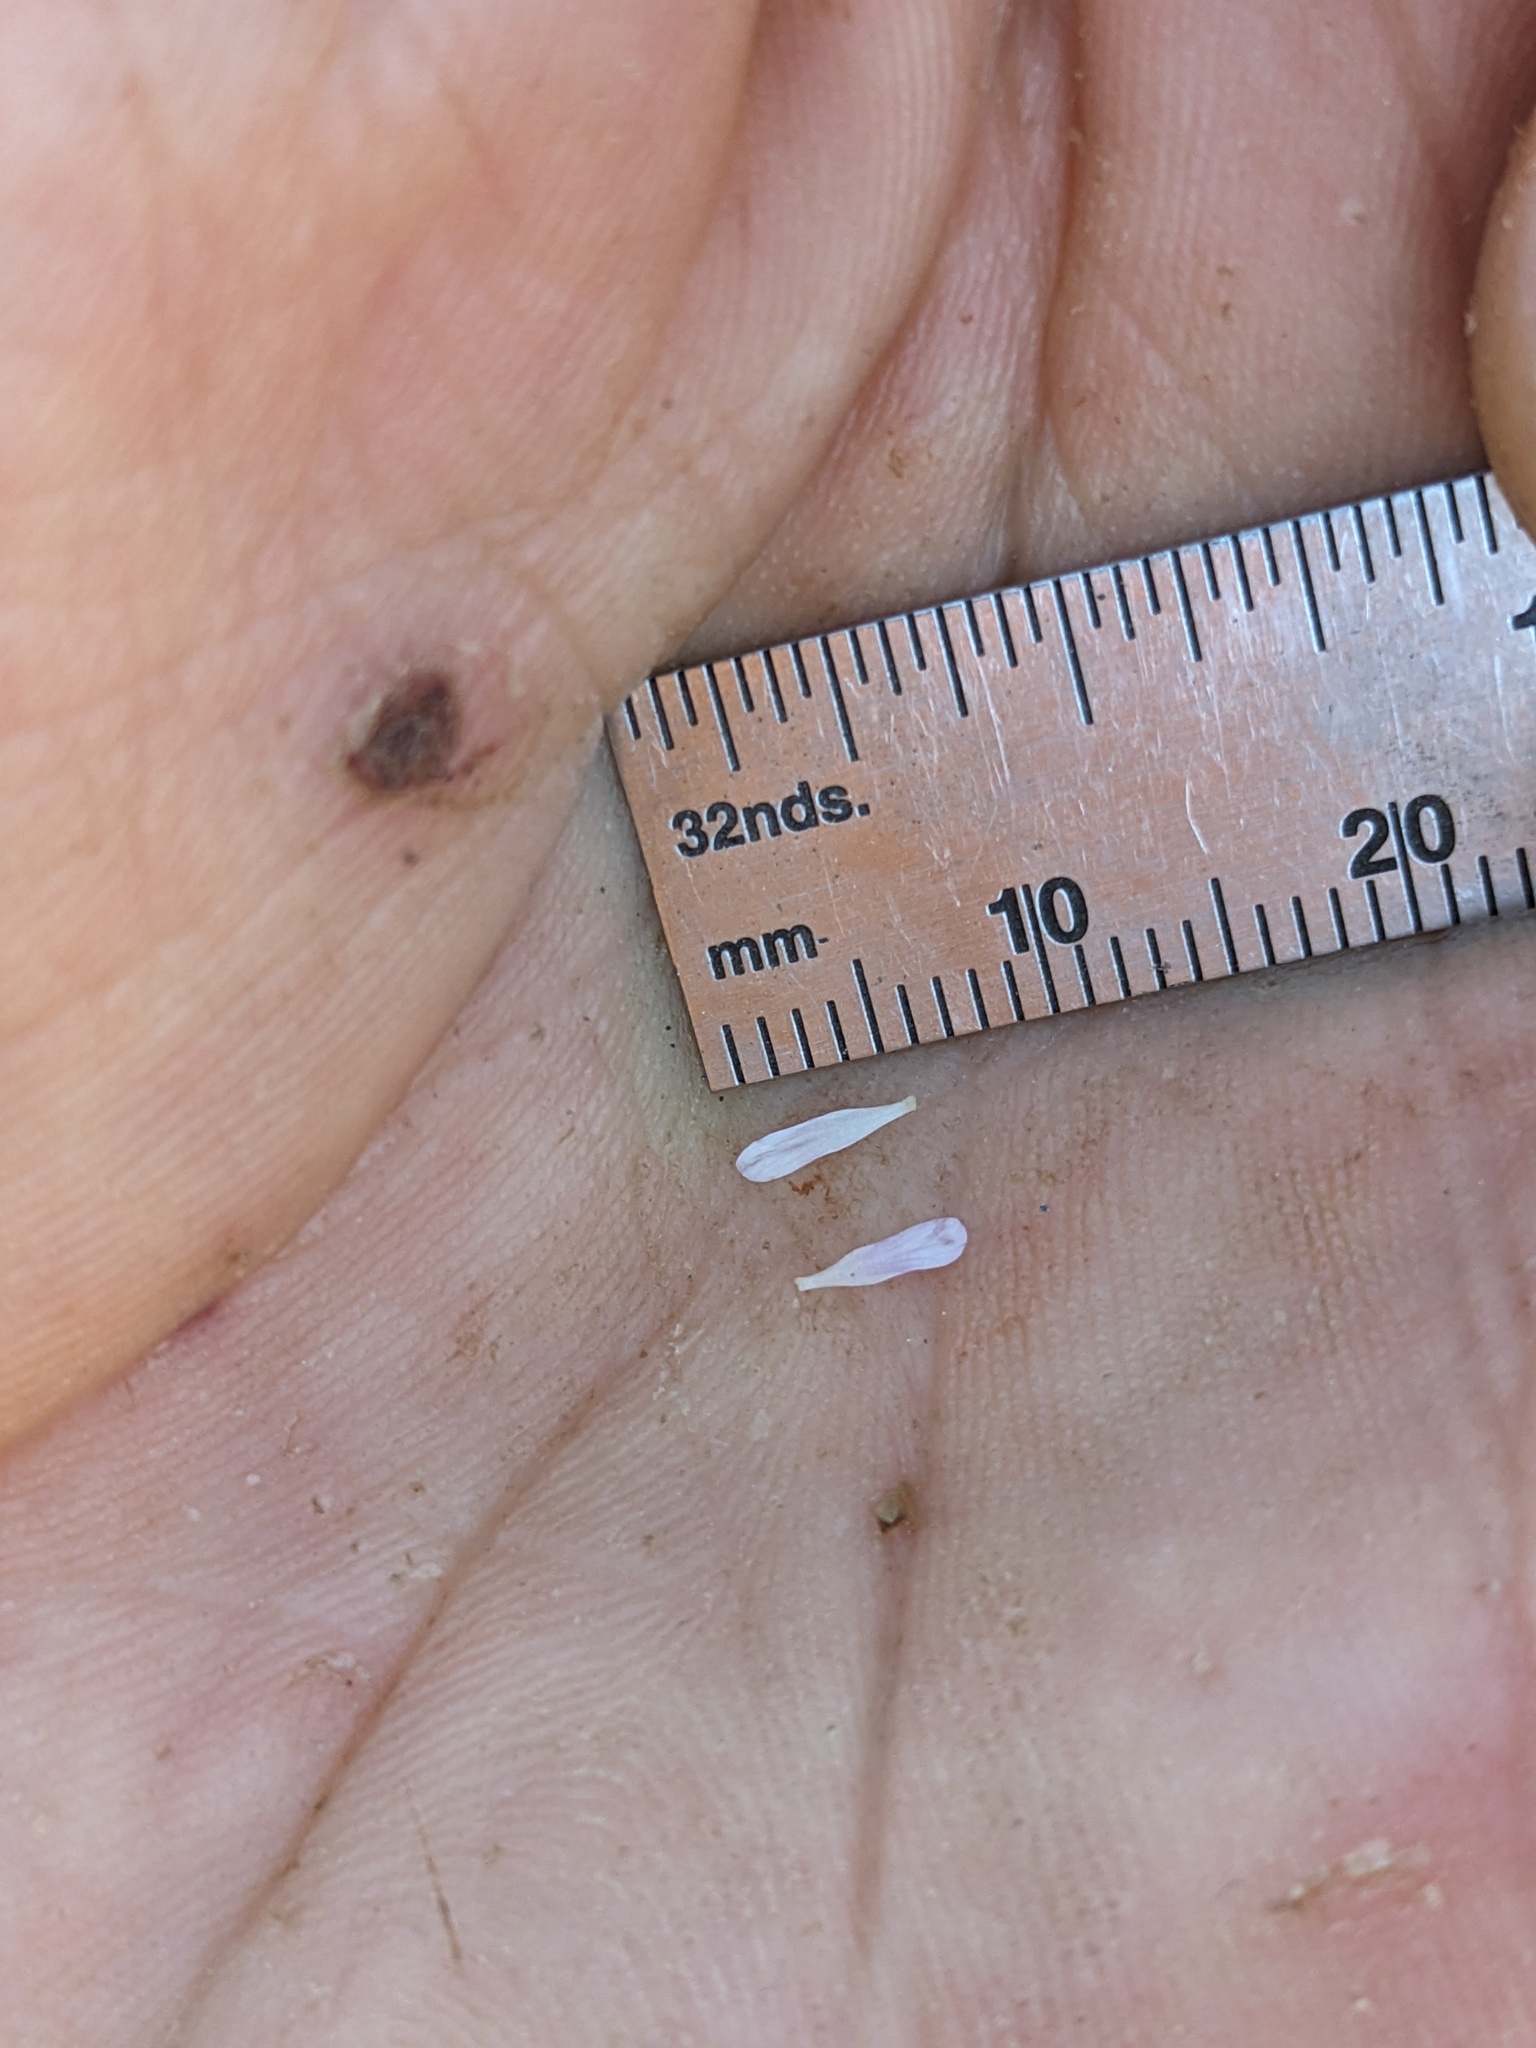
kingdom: Plantae
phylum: Tracheophyta
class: Magnoliopsida
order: Brassicales
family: Brassicaceae
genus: Boechera
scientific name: Boechera inyoensis
